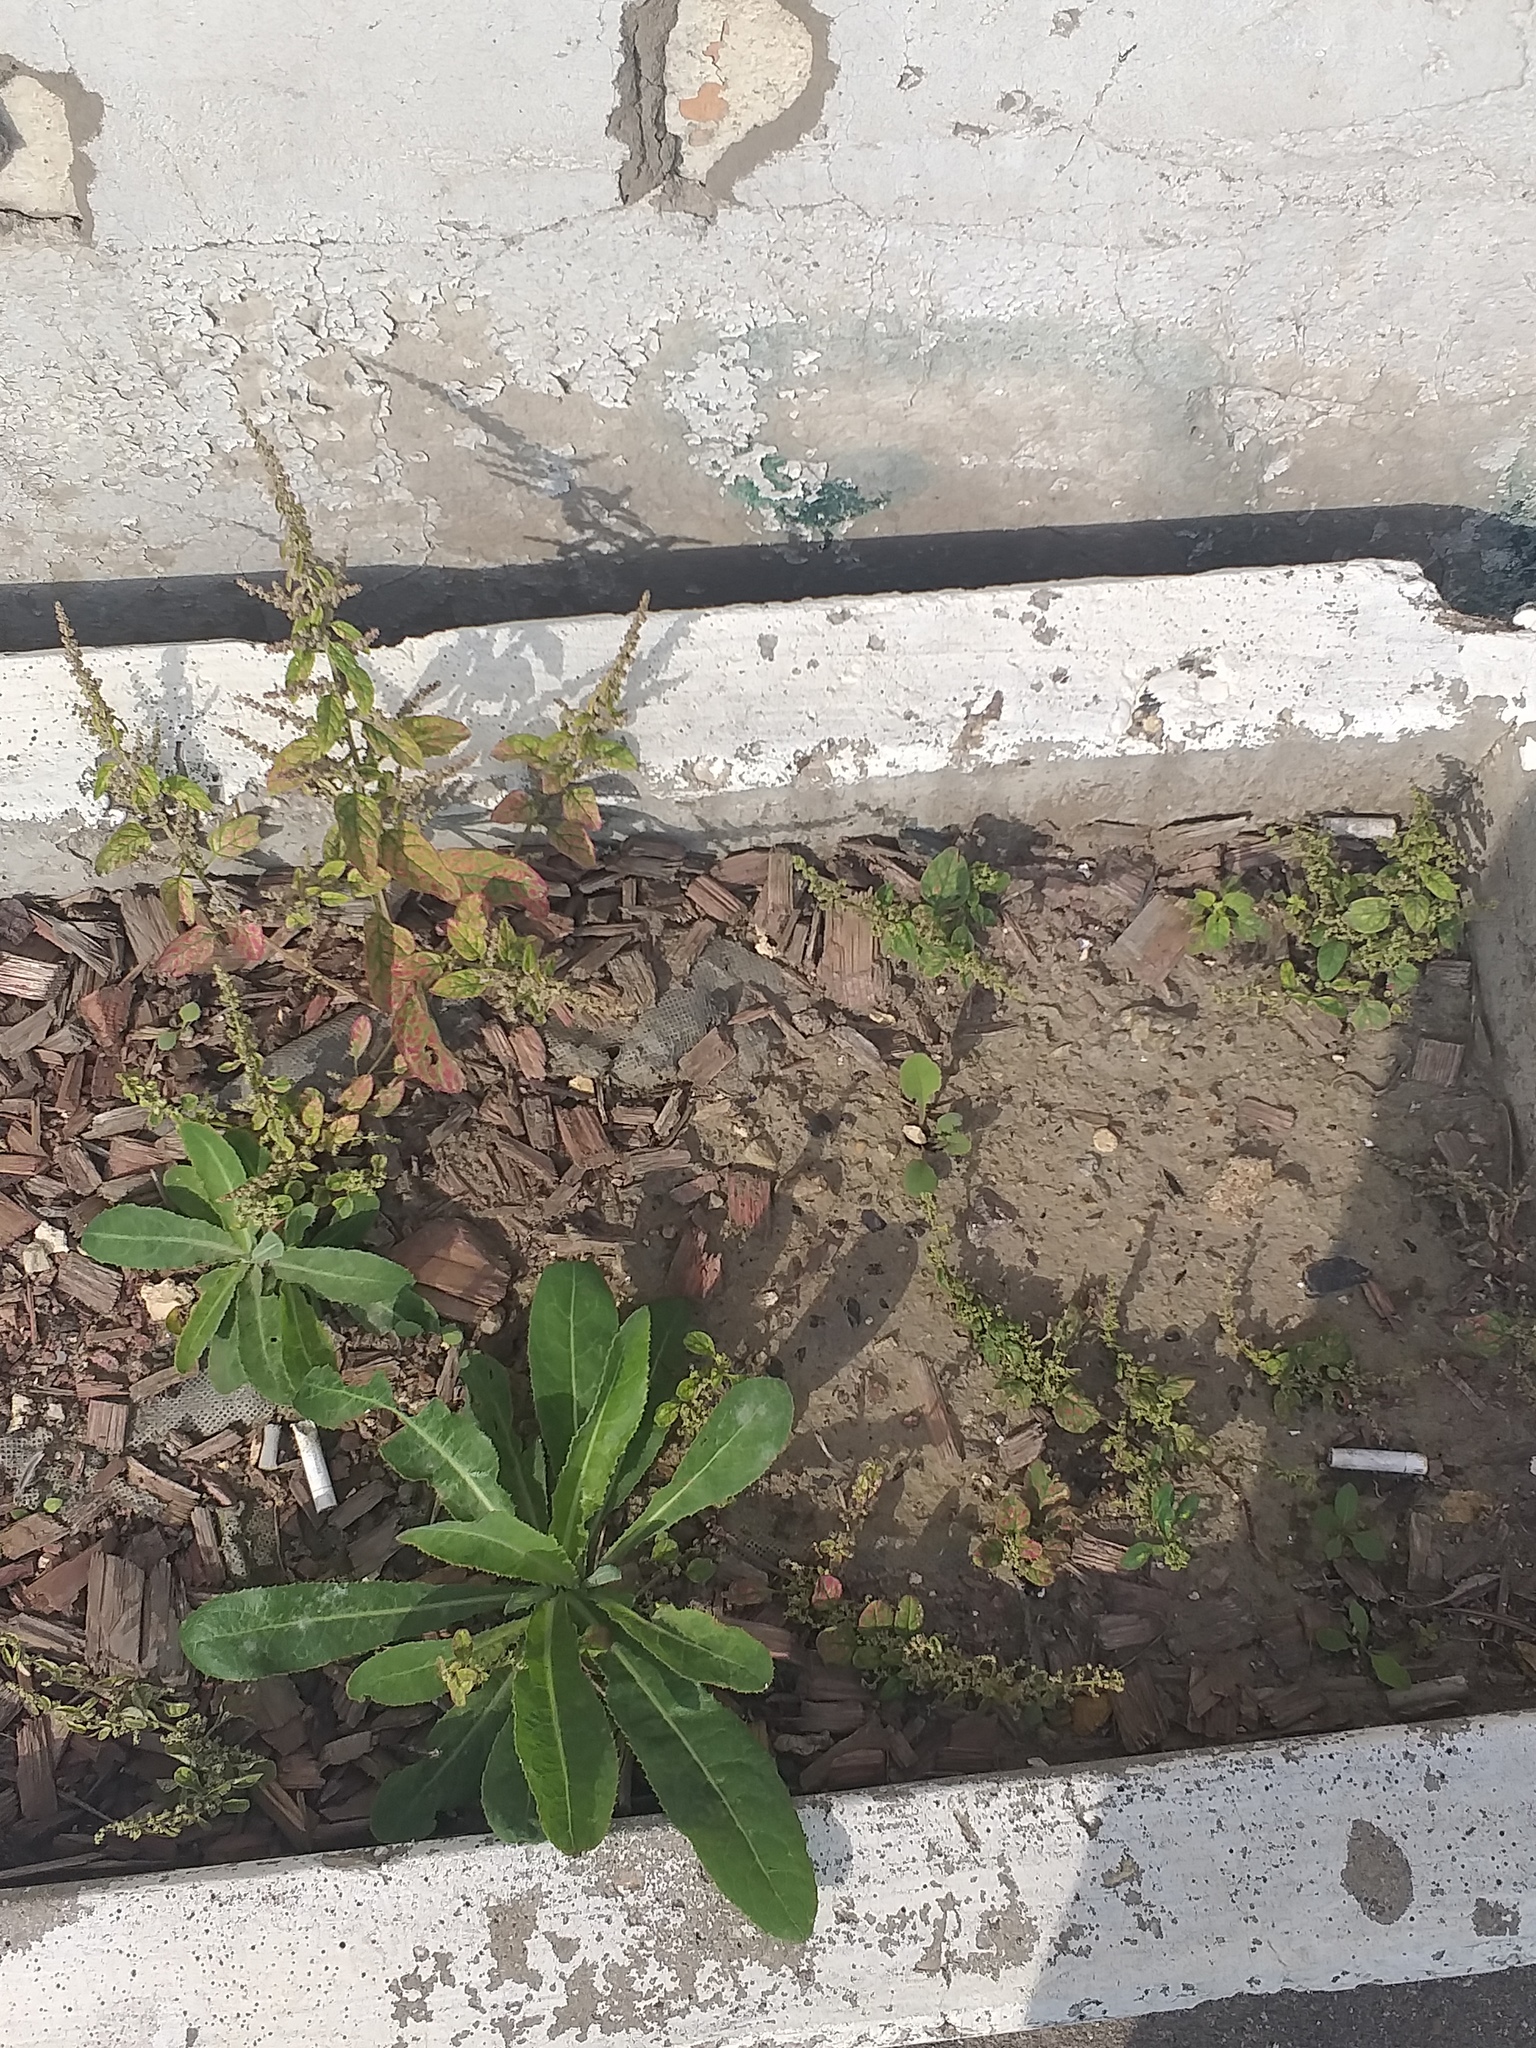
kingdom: Plantae
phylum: Tracheophyta
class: Magnoliopsida
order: Caryophyllales
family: Amaranthaceae
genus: Lipandra
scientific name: Lipandra polysperma
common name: Many-seed goosefoot
